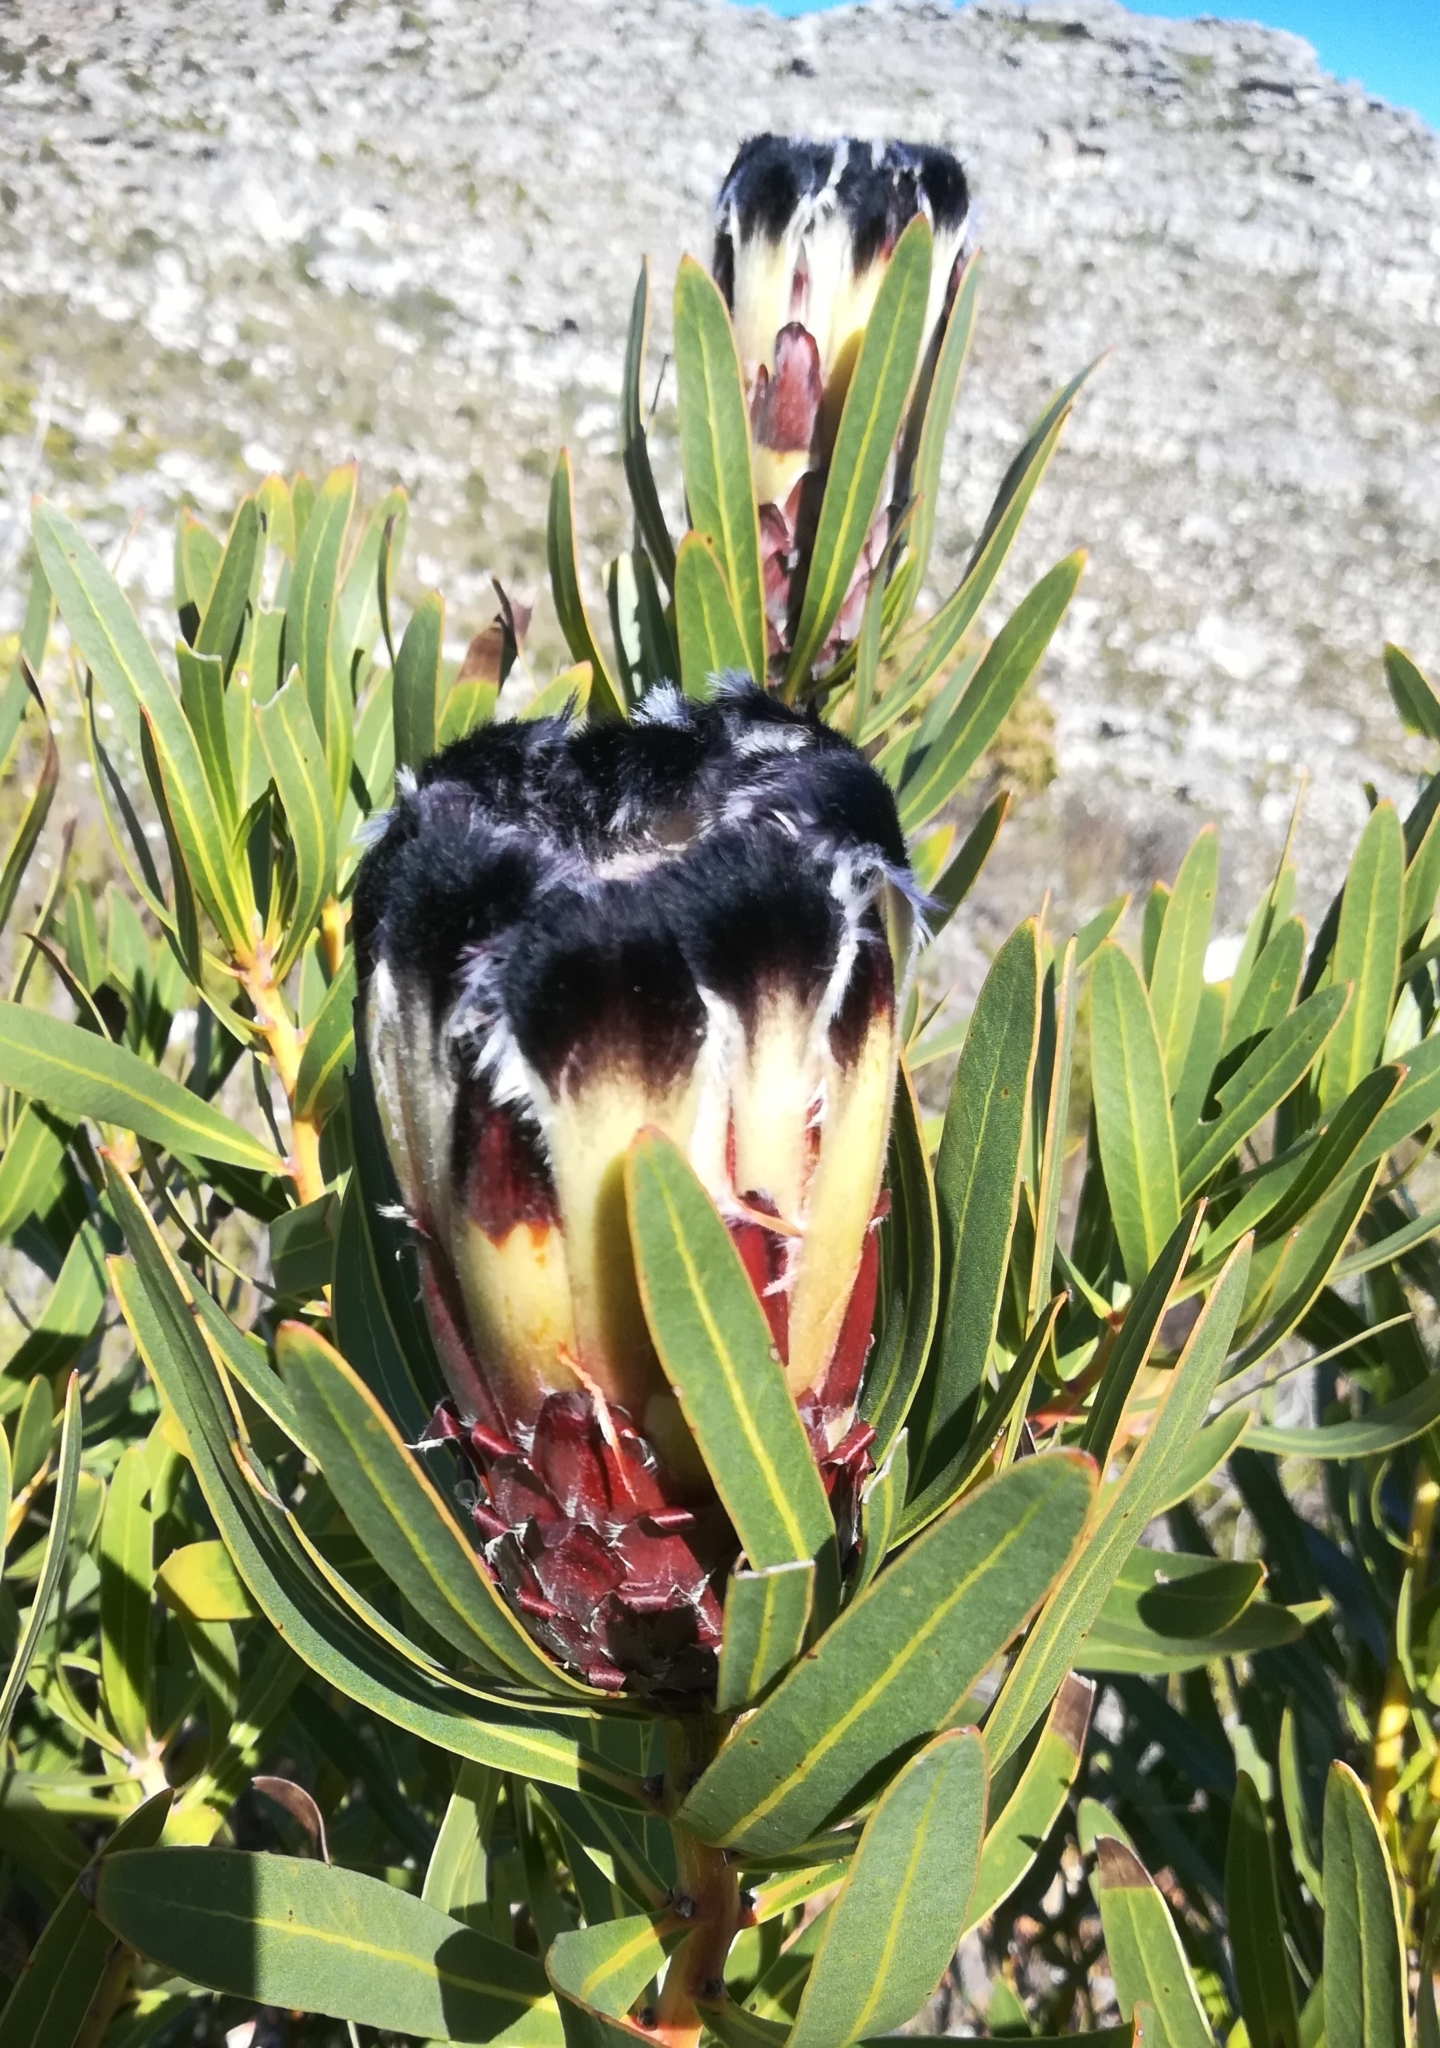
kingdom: Plantae
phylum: Tracheophyta
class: Magnoliopsida
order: Proteales
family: Proteaceae
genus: Protea
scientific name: Protea lepidocarpodendron
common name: Black-bearded protea
